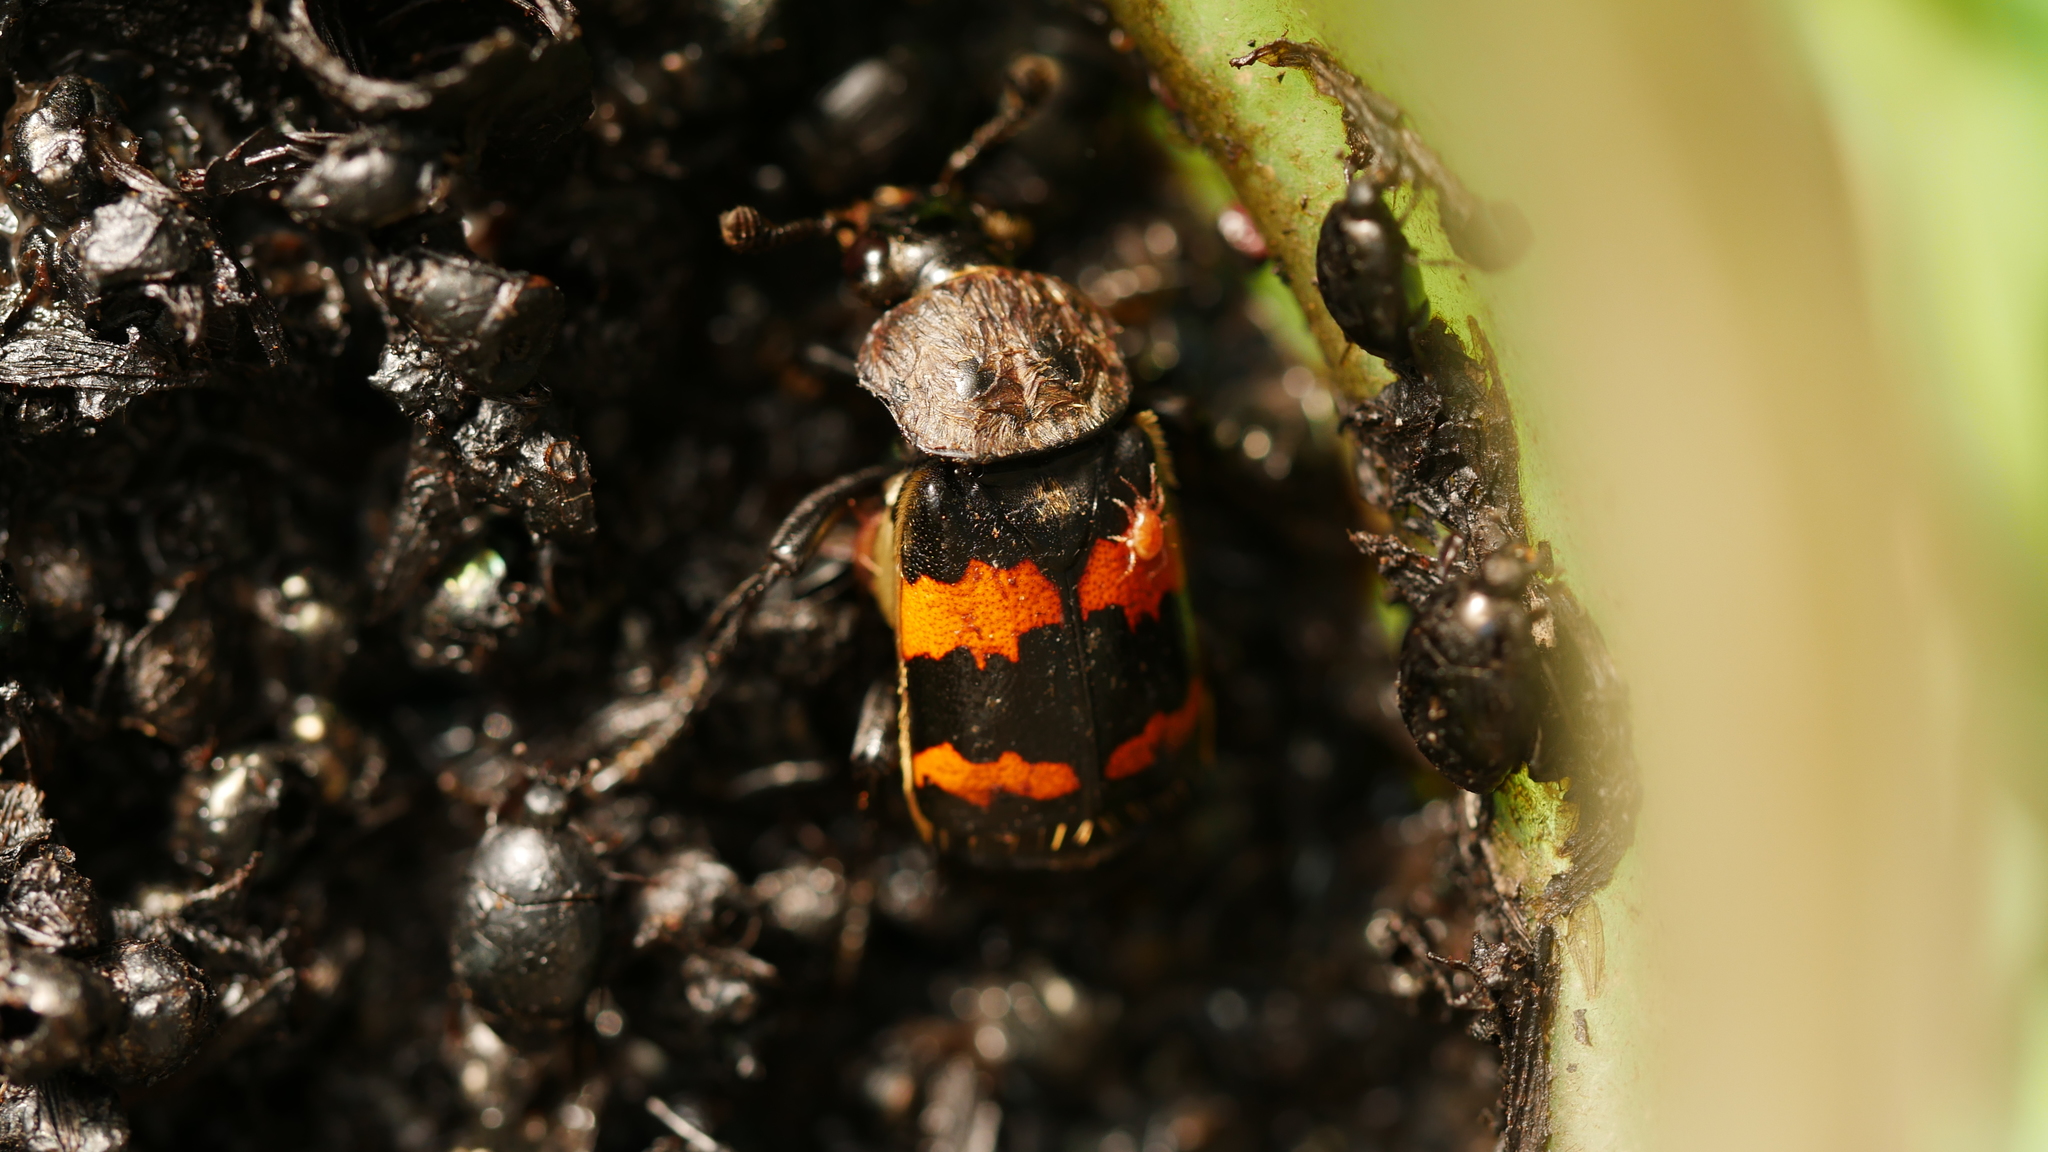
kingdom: Animalia
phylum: Arthropoda
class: Insecta
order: Coleoptera
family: Staphylinidae
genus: Nicrophorus
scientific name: Nicrophorus tomentosus
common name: Tomentose burying beetle
